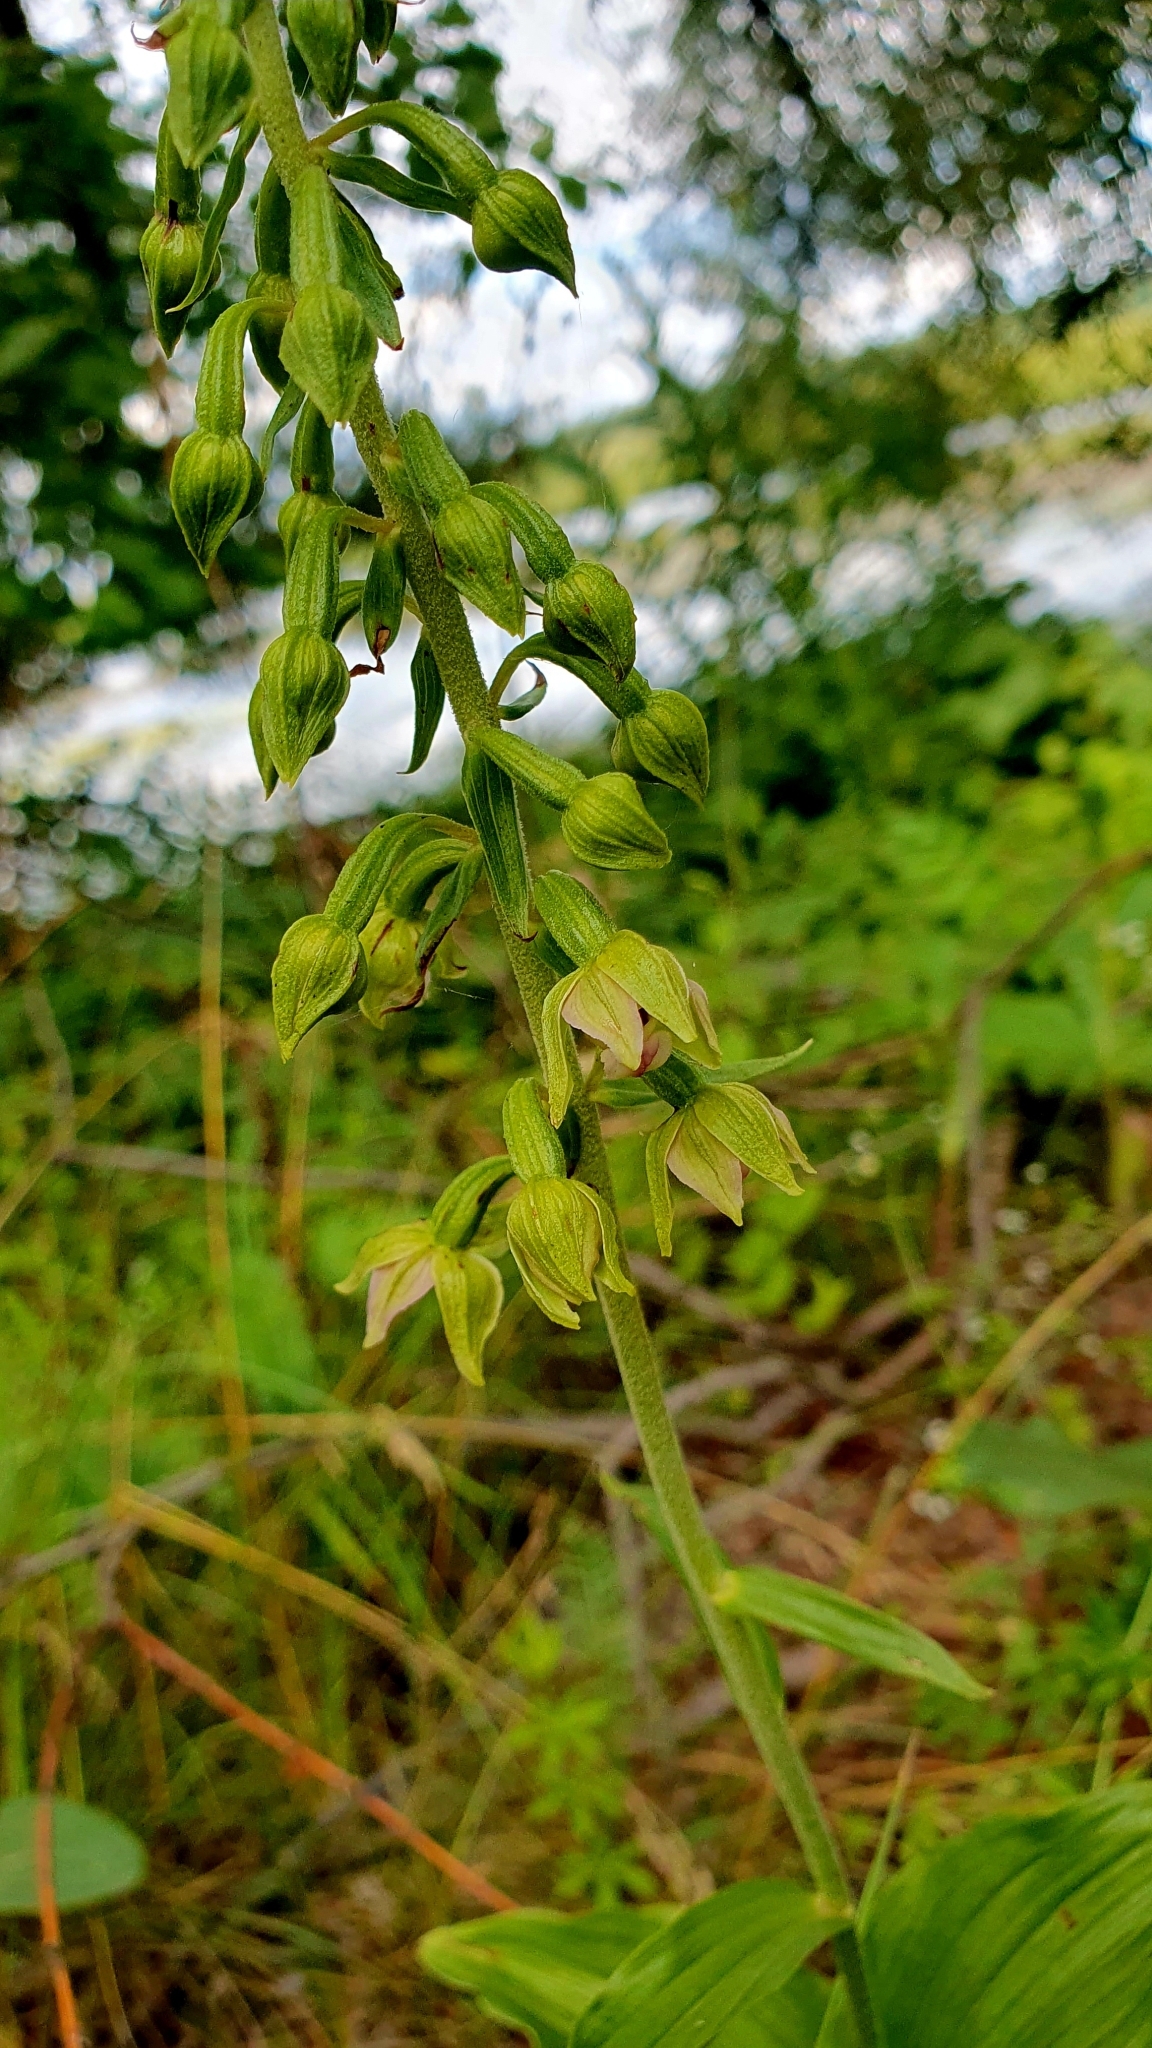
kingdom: Plantae
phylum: Tracheophyta
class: Liliopsida
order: Asparagales
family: Orchidaceae
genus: Epipactis
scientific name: Epipactis helleborine
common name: Broad-leaved helleborine
